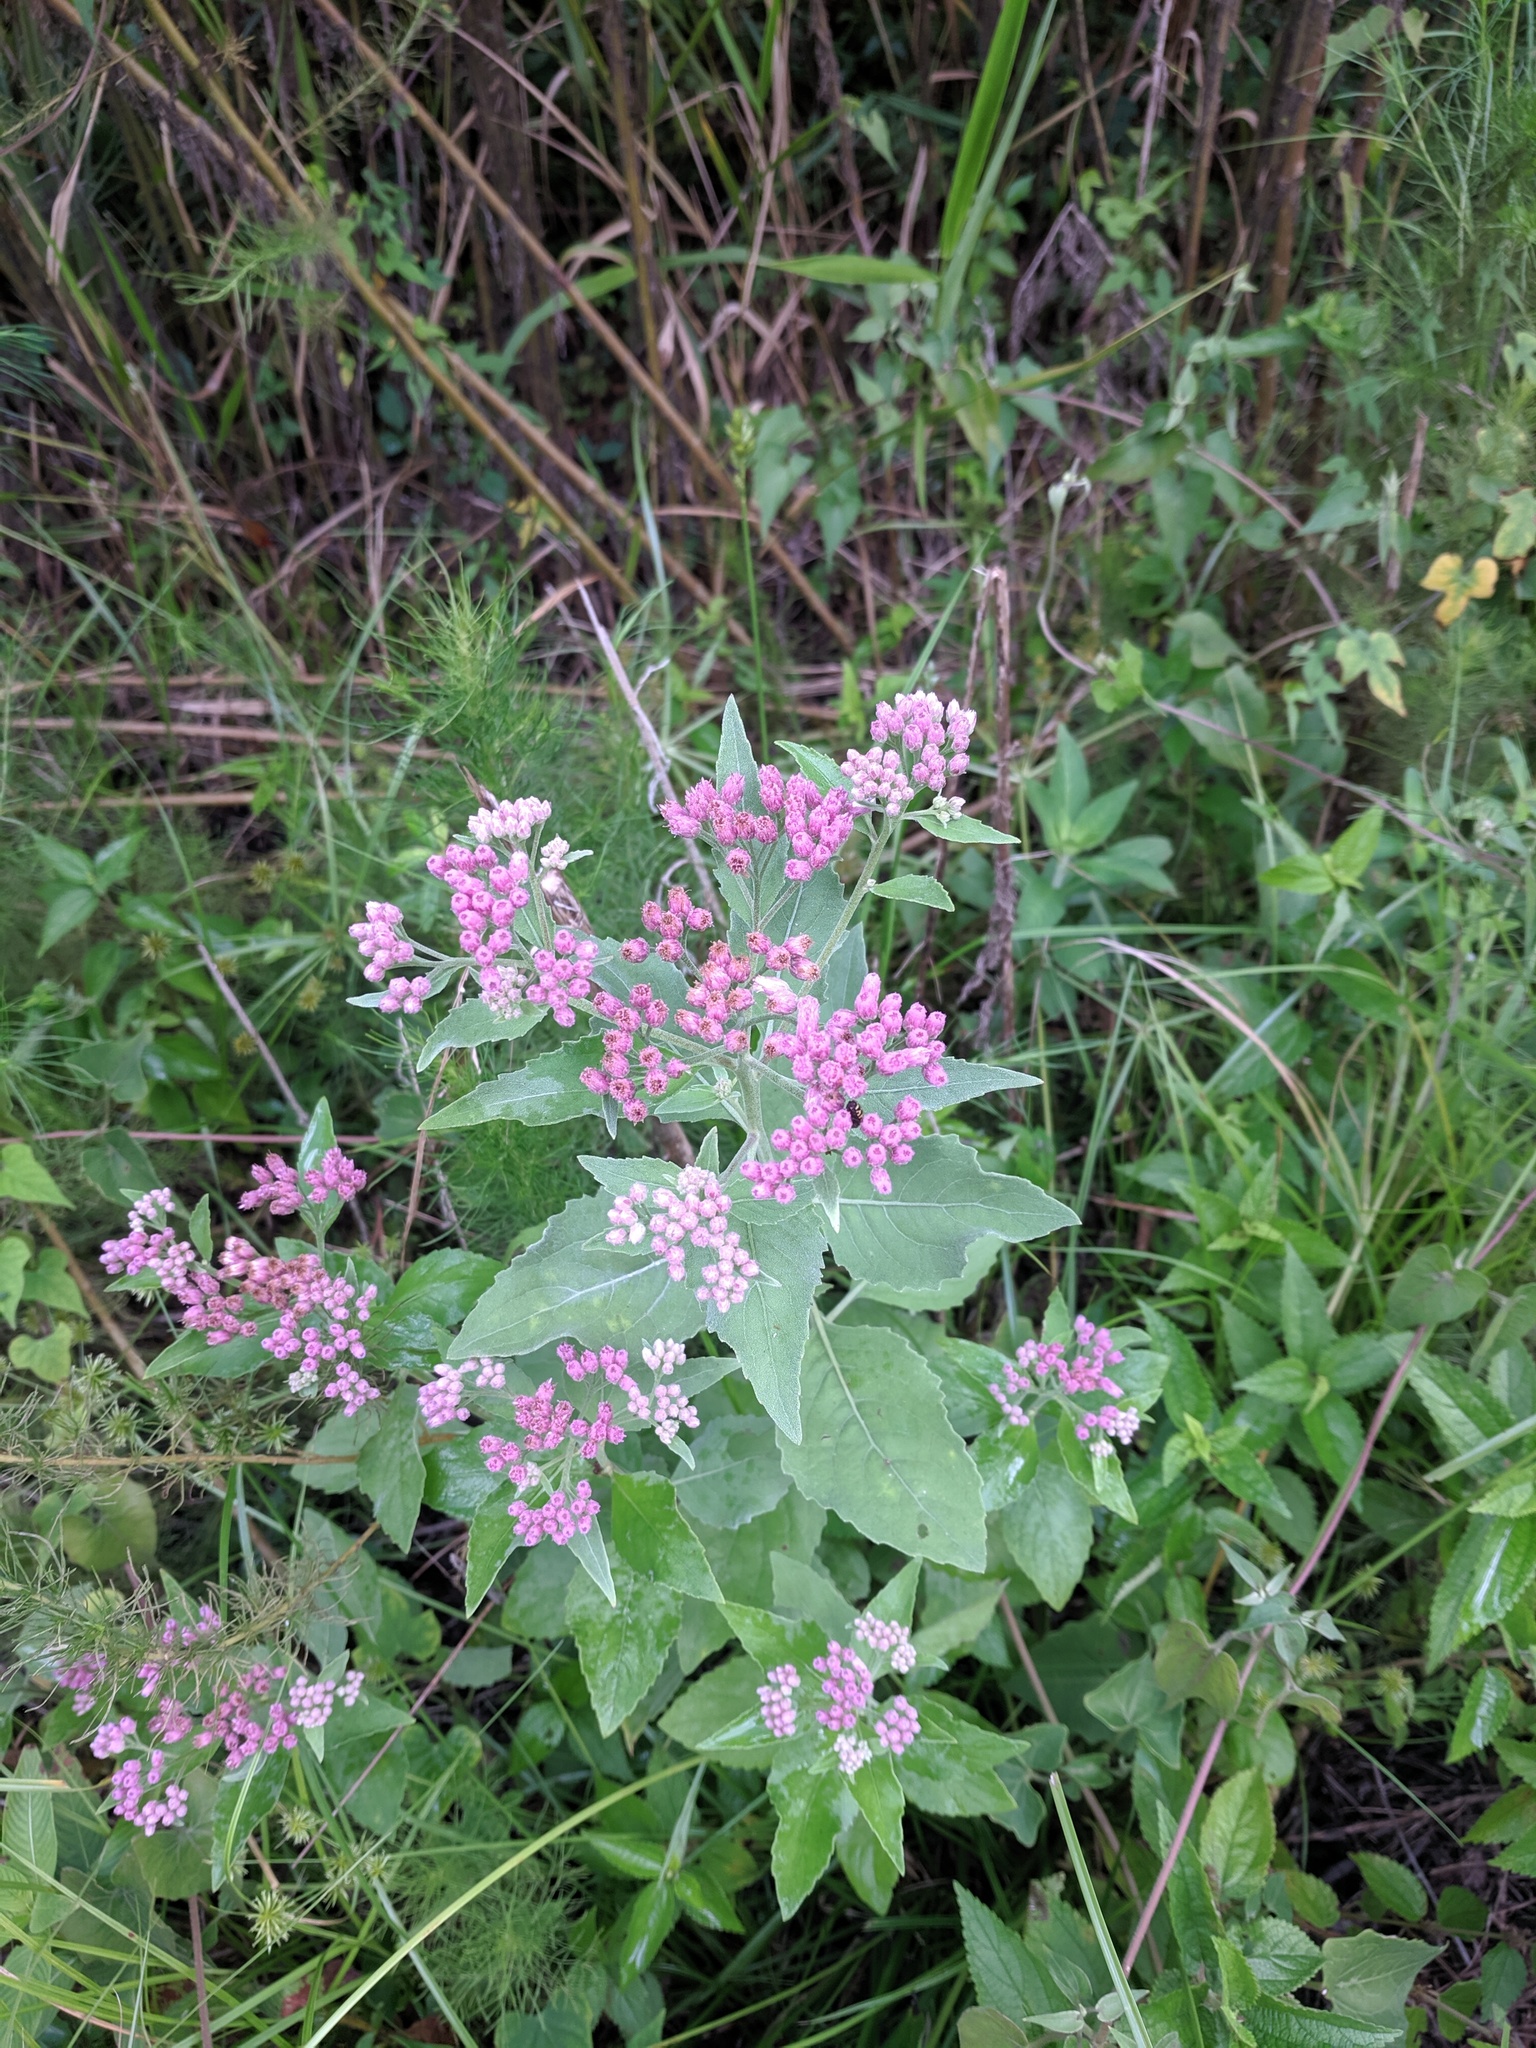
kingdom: Plantae
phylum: Tracheophyta
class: Magnoliopsida
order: Asterales
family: Asteraceae
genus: Pluchea
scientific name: Pluchea odorata
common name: Saltmarsh fleabane
